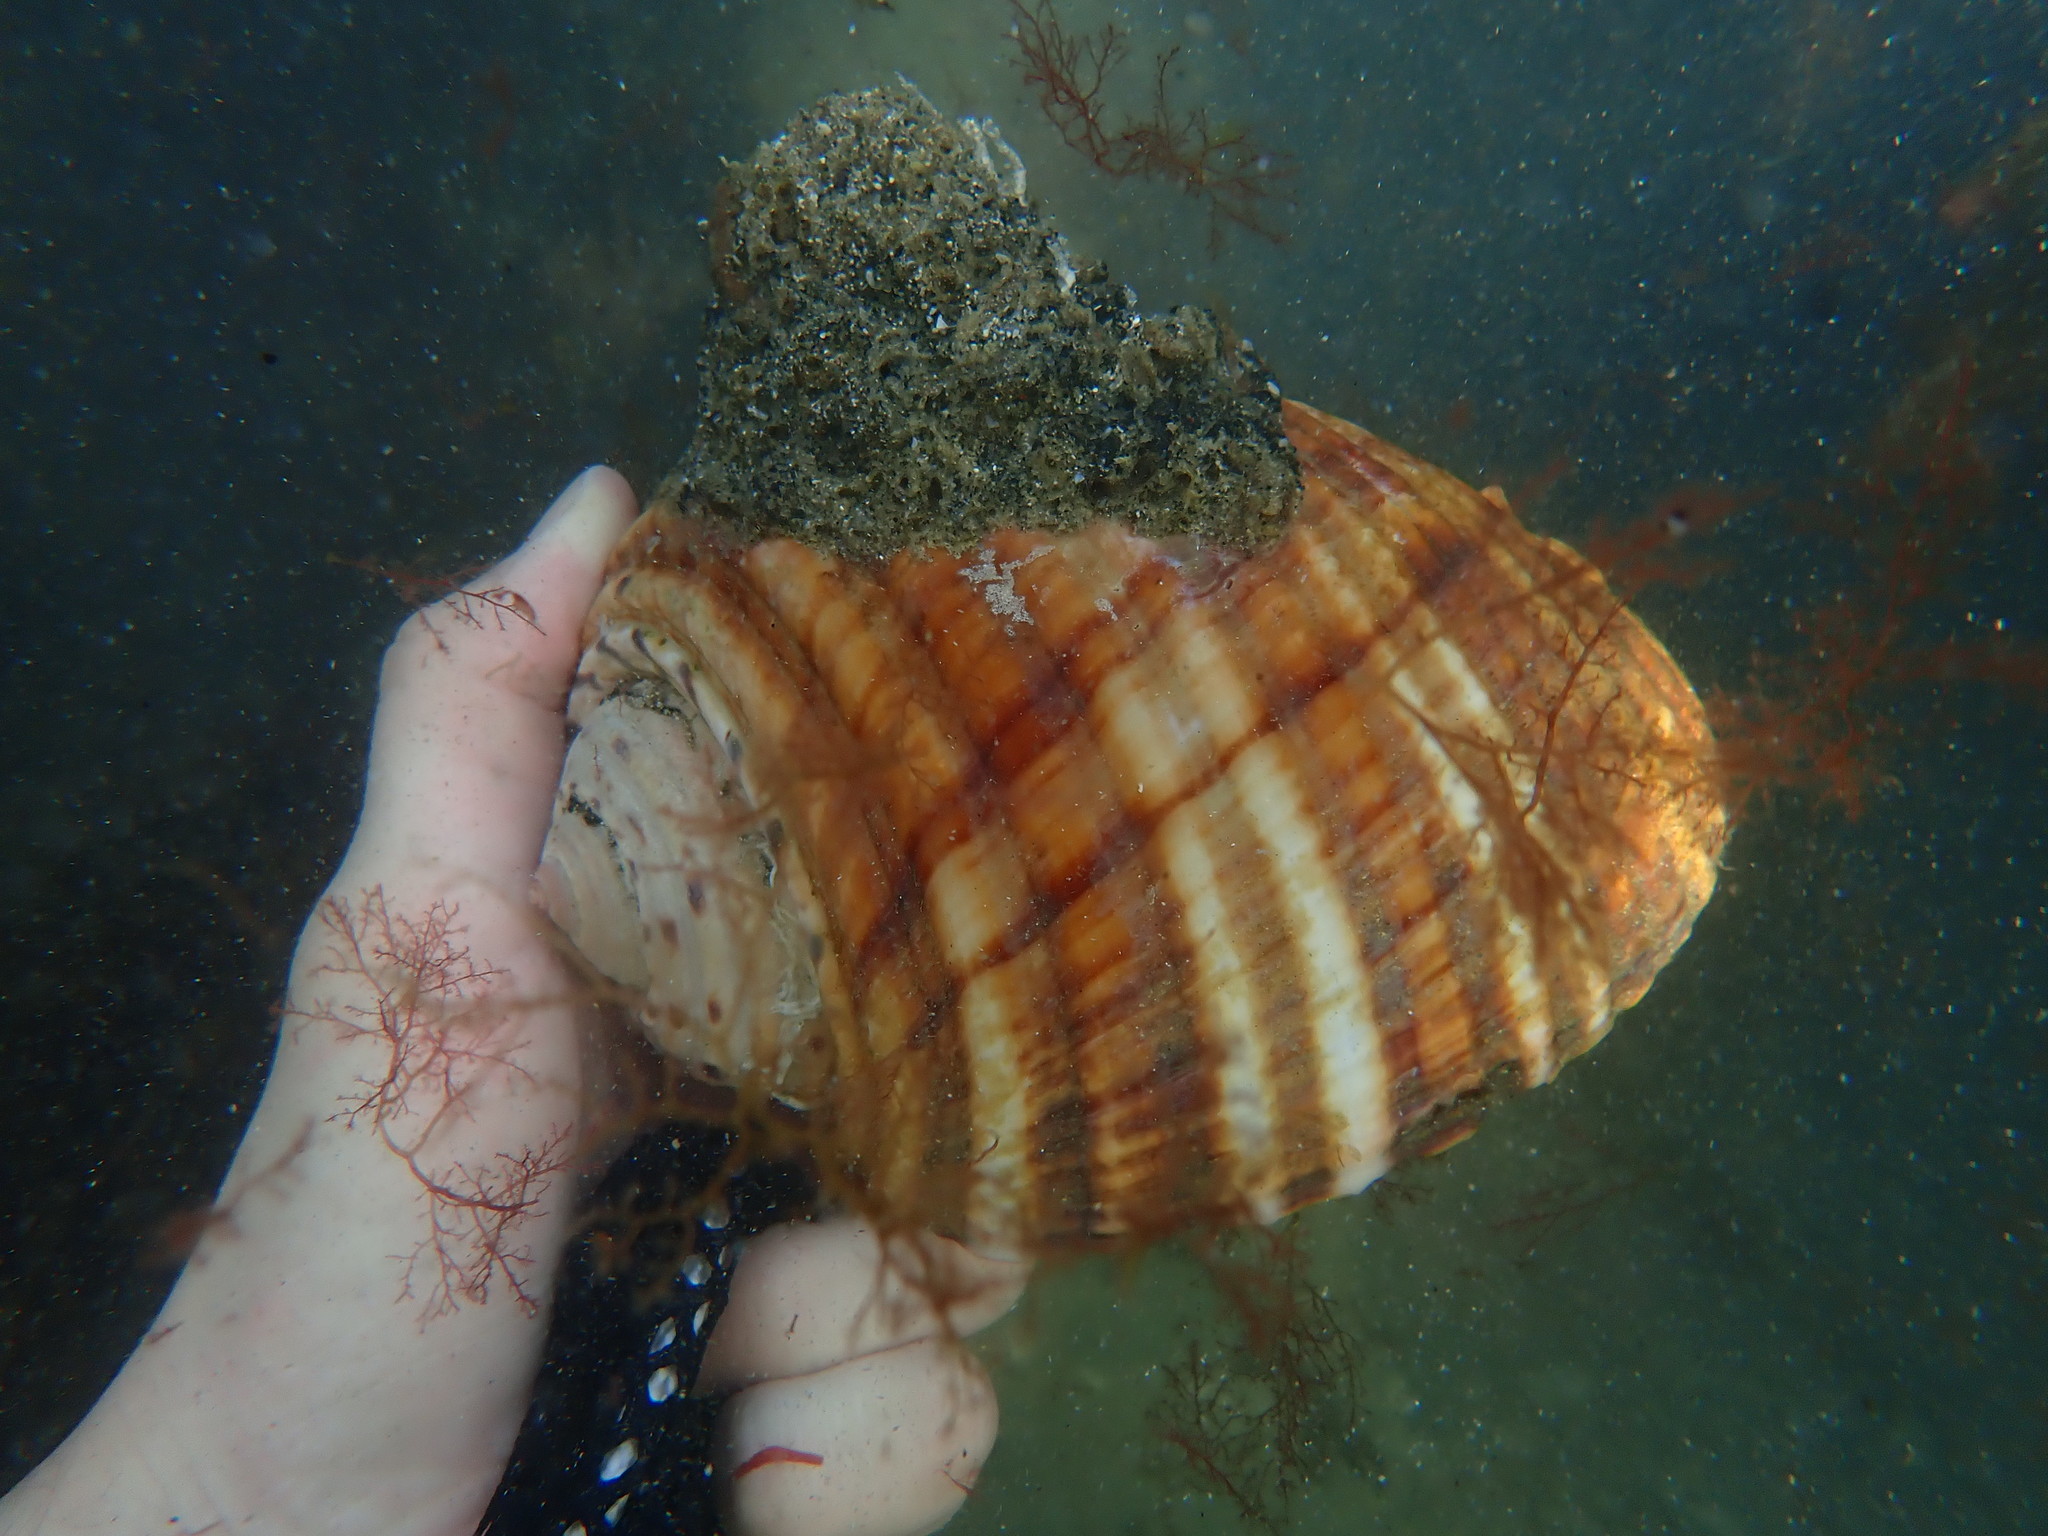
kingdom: Animalia
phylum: Mollusca
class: Gastropoda
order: Littorinimorpha
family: Tonnidae
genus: Tonna
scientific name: Tonna tankervillii
